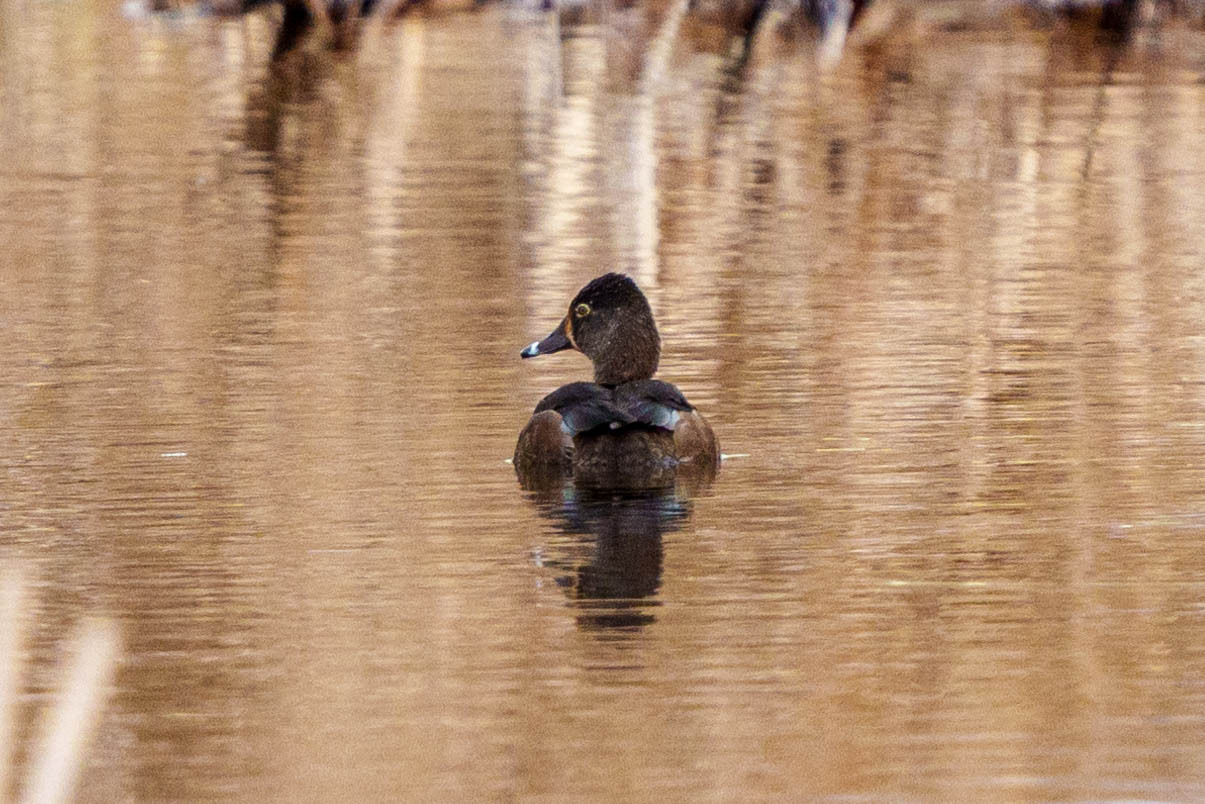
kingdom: Animalia
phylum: Chordata
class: Aves
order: Anseriformes
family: Anatidae
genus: Aythya
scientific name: Aythya collaris
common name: Ring-necked duck
